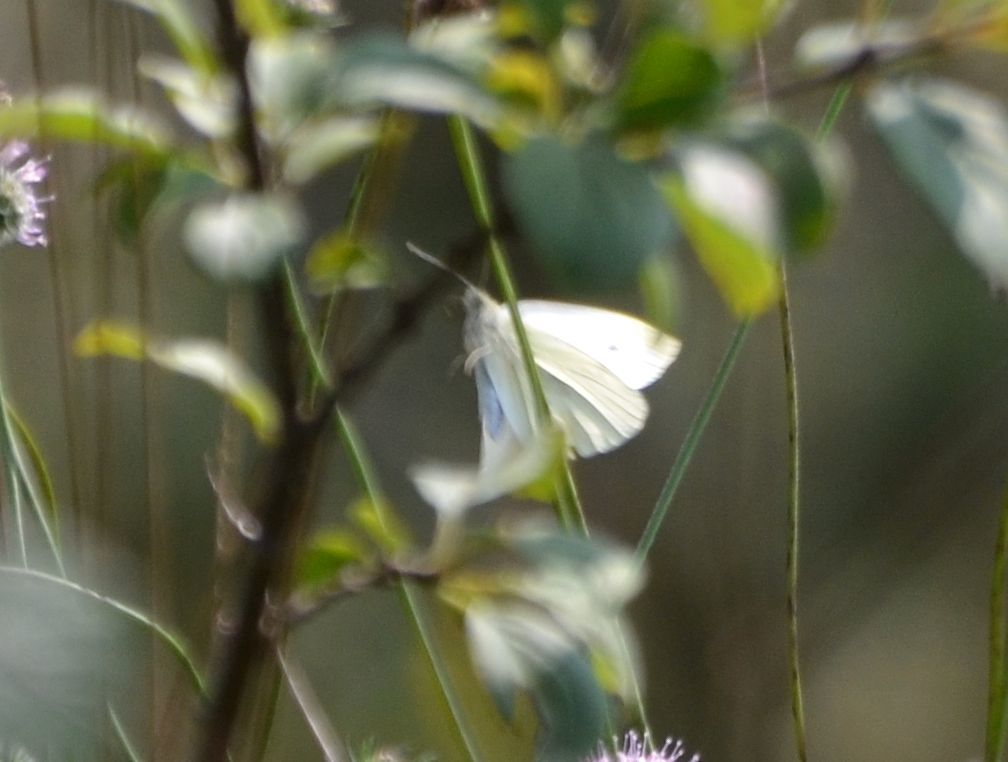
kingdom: Animalia
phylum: Arthropoda
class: Insecta
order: Lepidoptera
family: Pieridae
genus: Pieris
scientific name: Pieris rapae
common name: Small white
